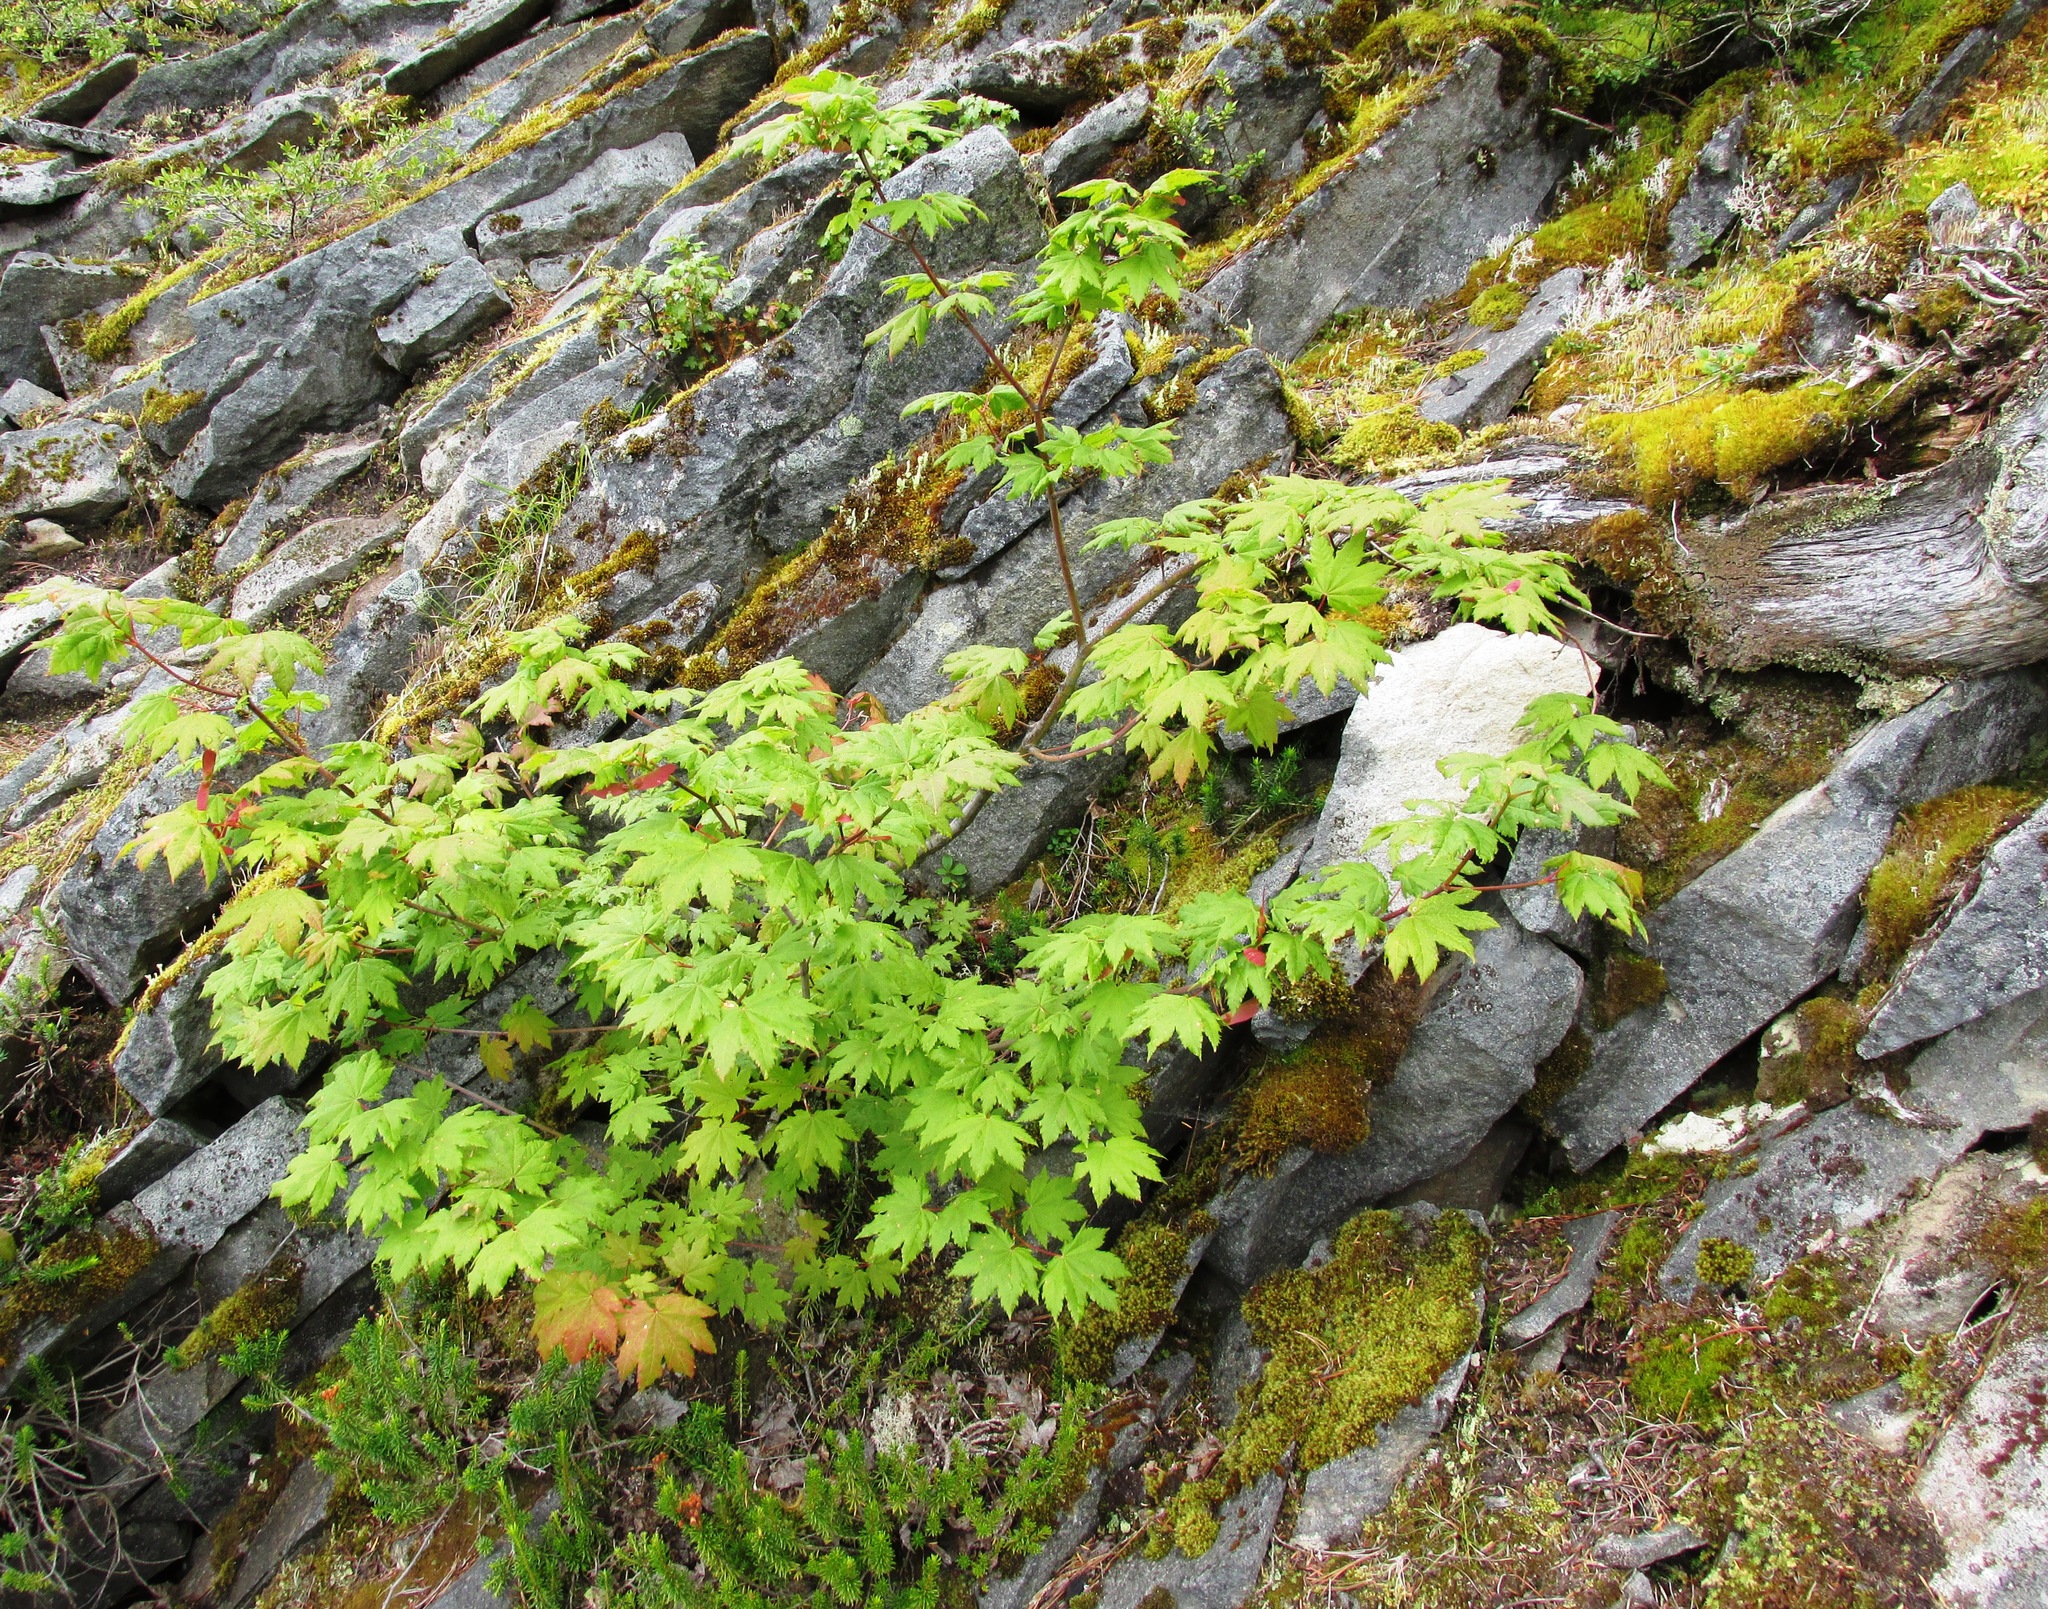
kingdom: Plantae
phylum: Tracheophyta
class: Magnoliopsida
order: Sapindales
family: Sapindaceae
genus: Acer
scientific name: Acer circinatum
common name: Vine maple
